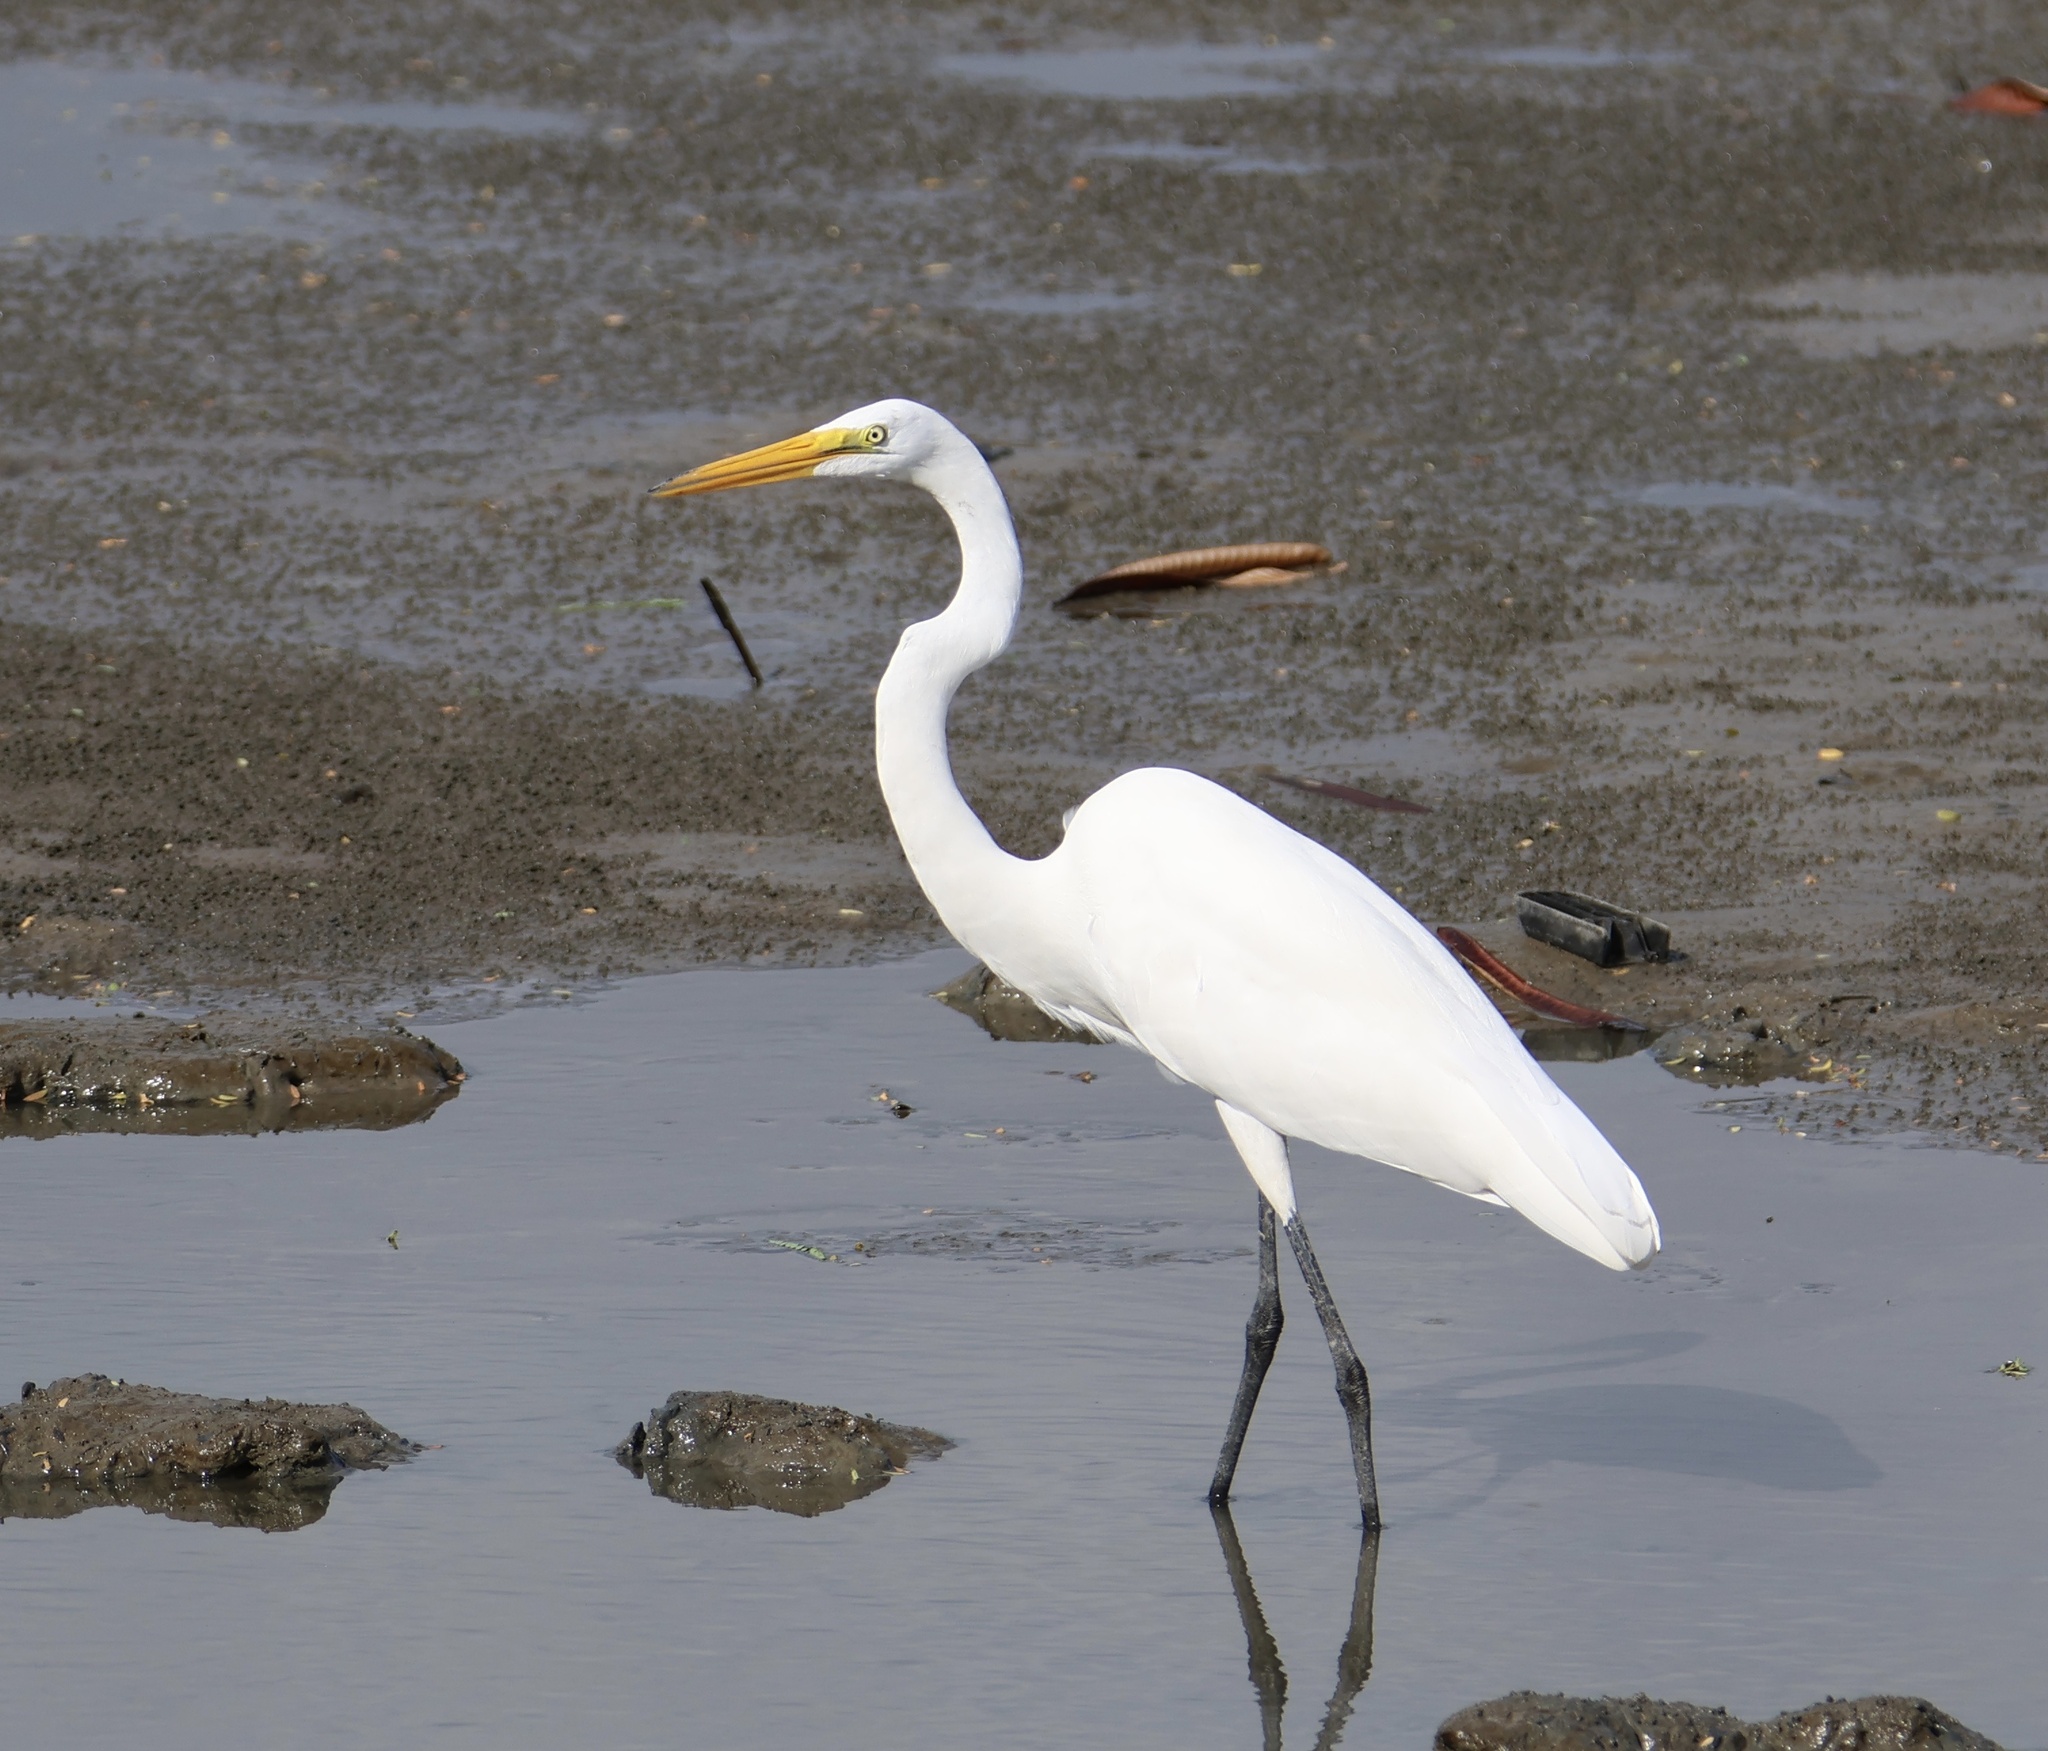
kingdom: Animalia
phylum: Chordata
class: Aves
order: Pelecaniformes
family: Ardeidae
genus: Ardea
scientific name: Ardea alba
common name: Great egret
